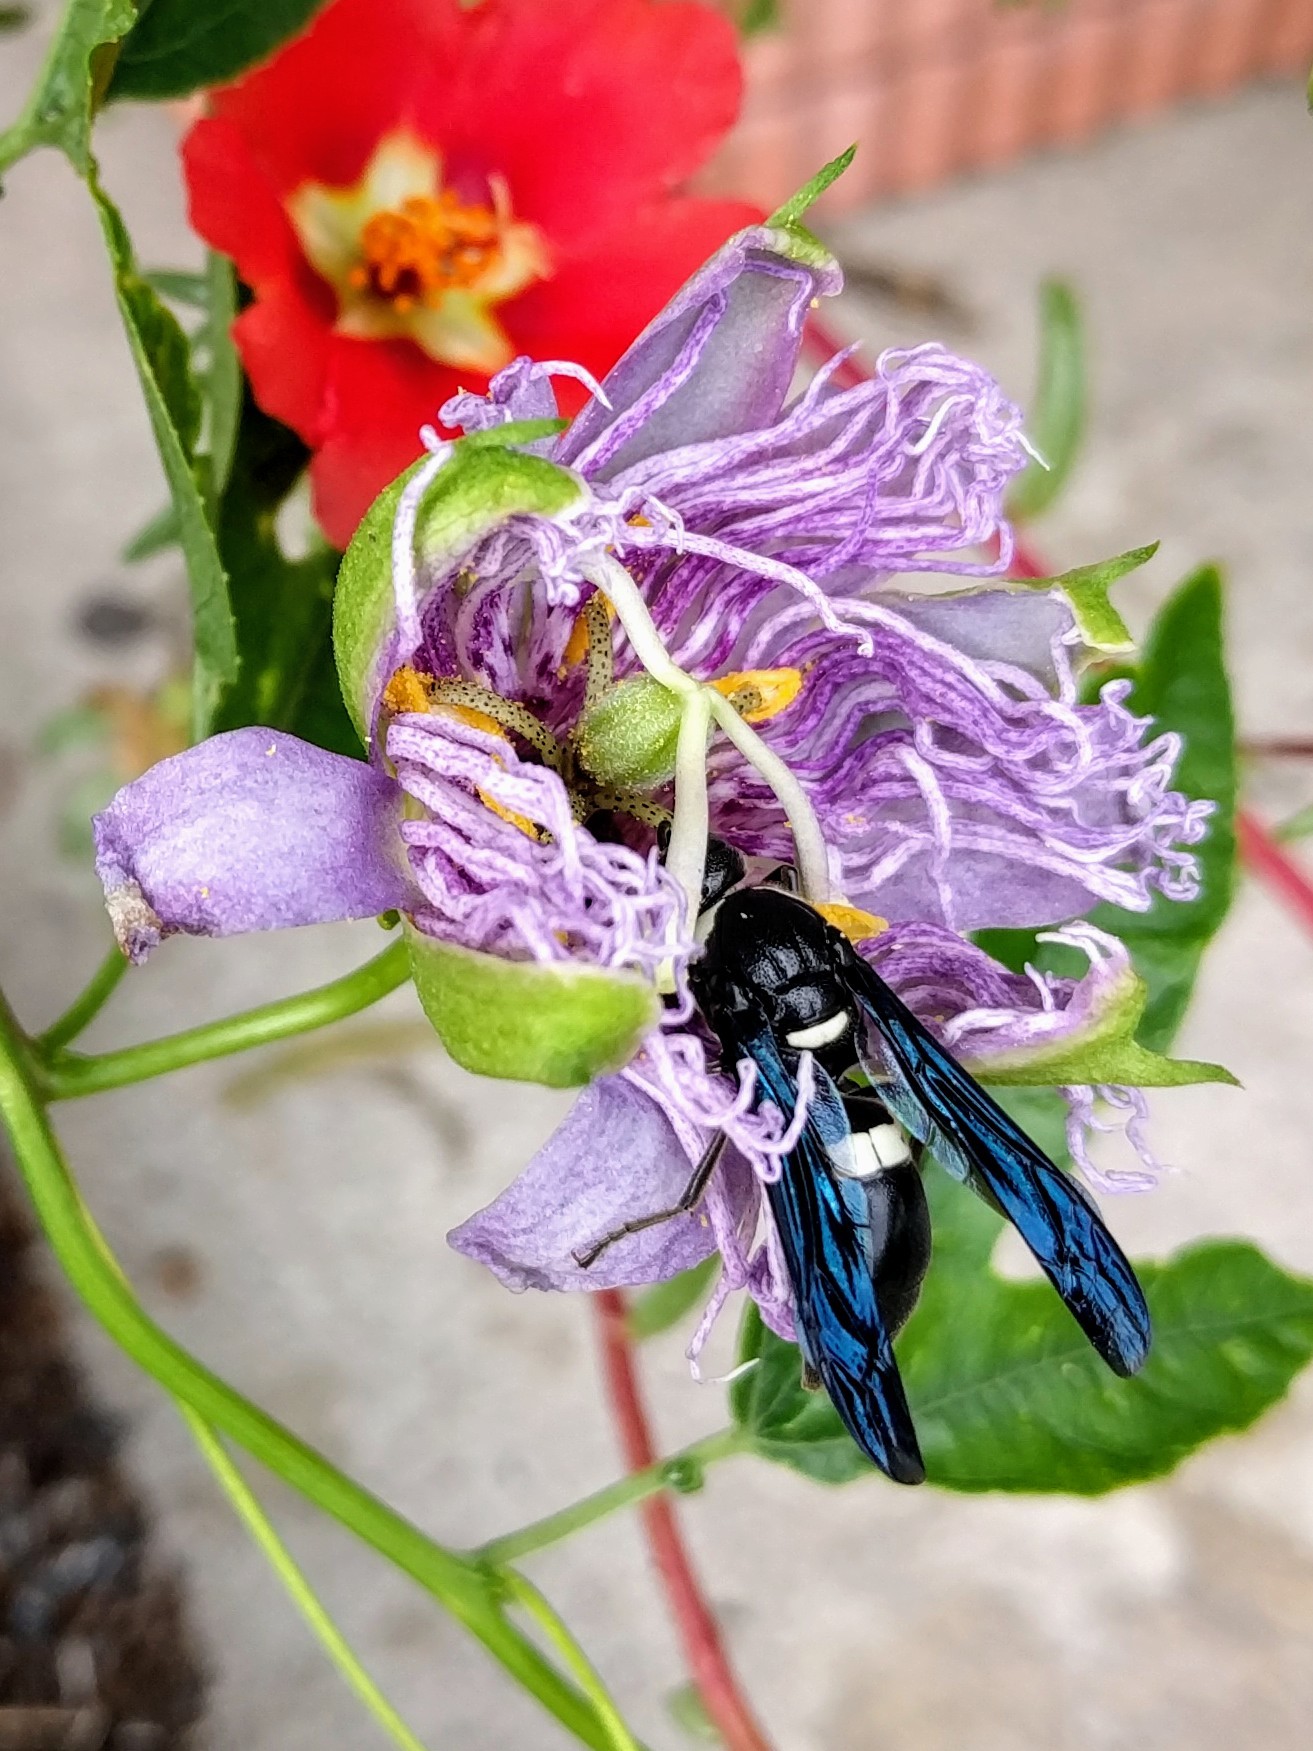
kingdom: Animalia
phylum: Arthropoda
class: Insecta
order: Hymenoptera
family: Eumenidae
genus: Monobia
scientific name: Monobia quadridens
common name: Four-toothed mason wasp
